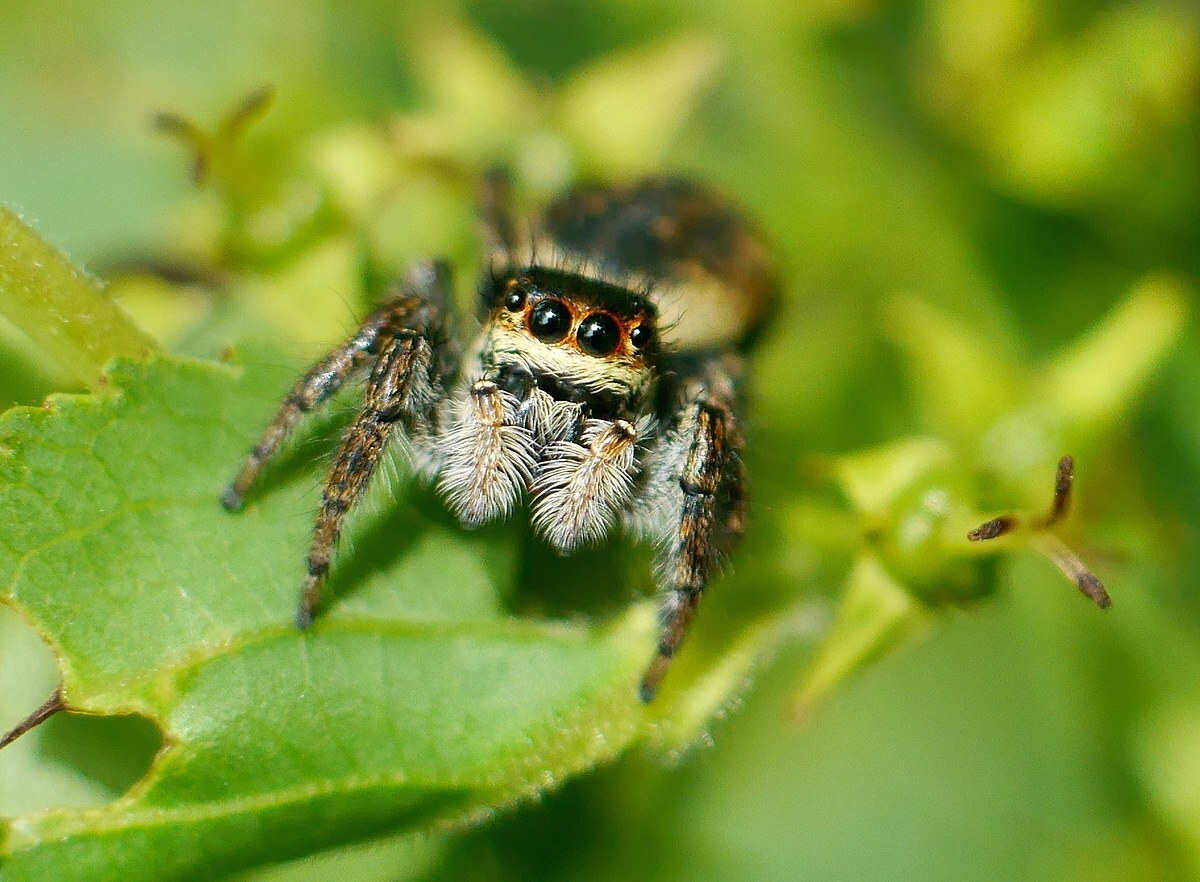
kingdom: Animalia
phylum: Arthropoda
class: Arachnida
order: Araneae
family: Salticidae
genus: Carrhotus
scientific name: Carrhotus xanthogramma
